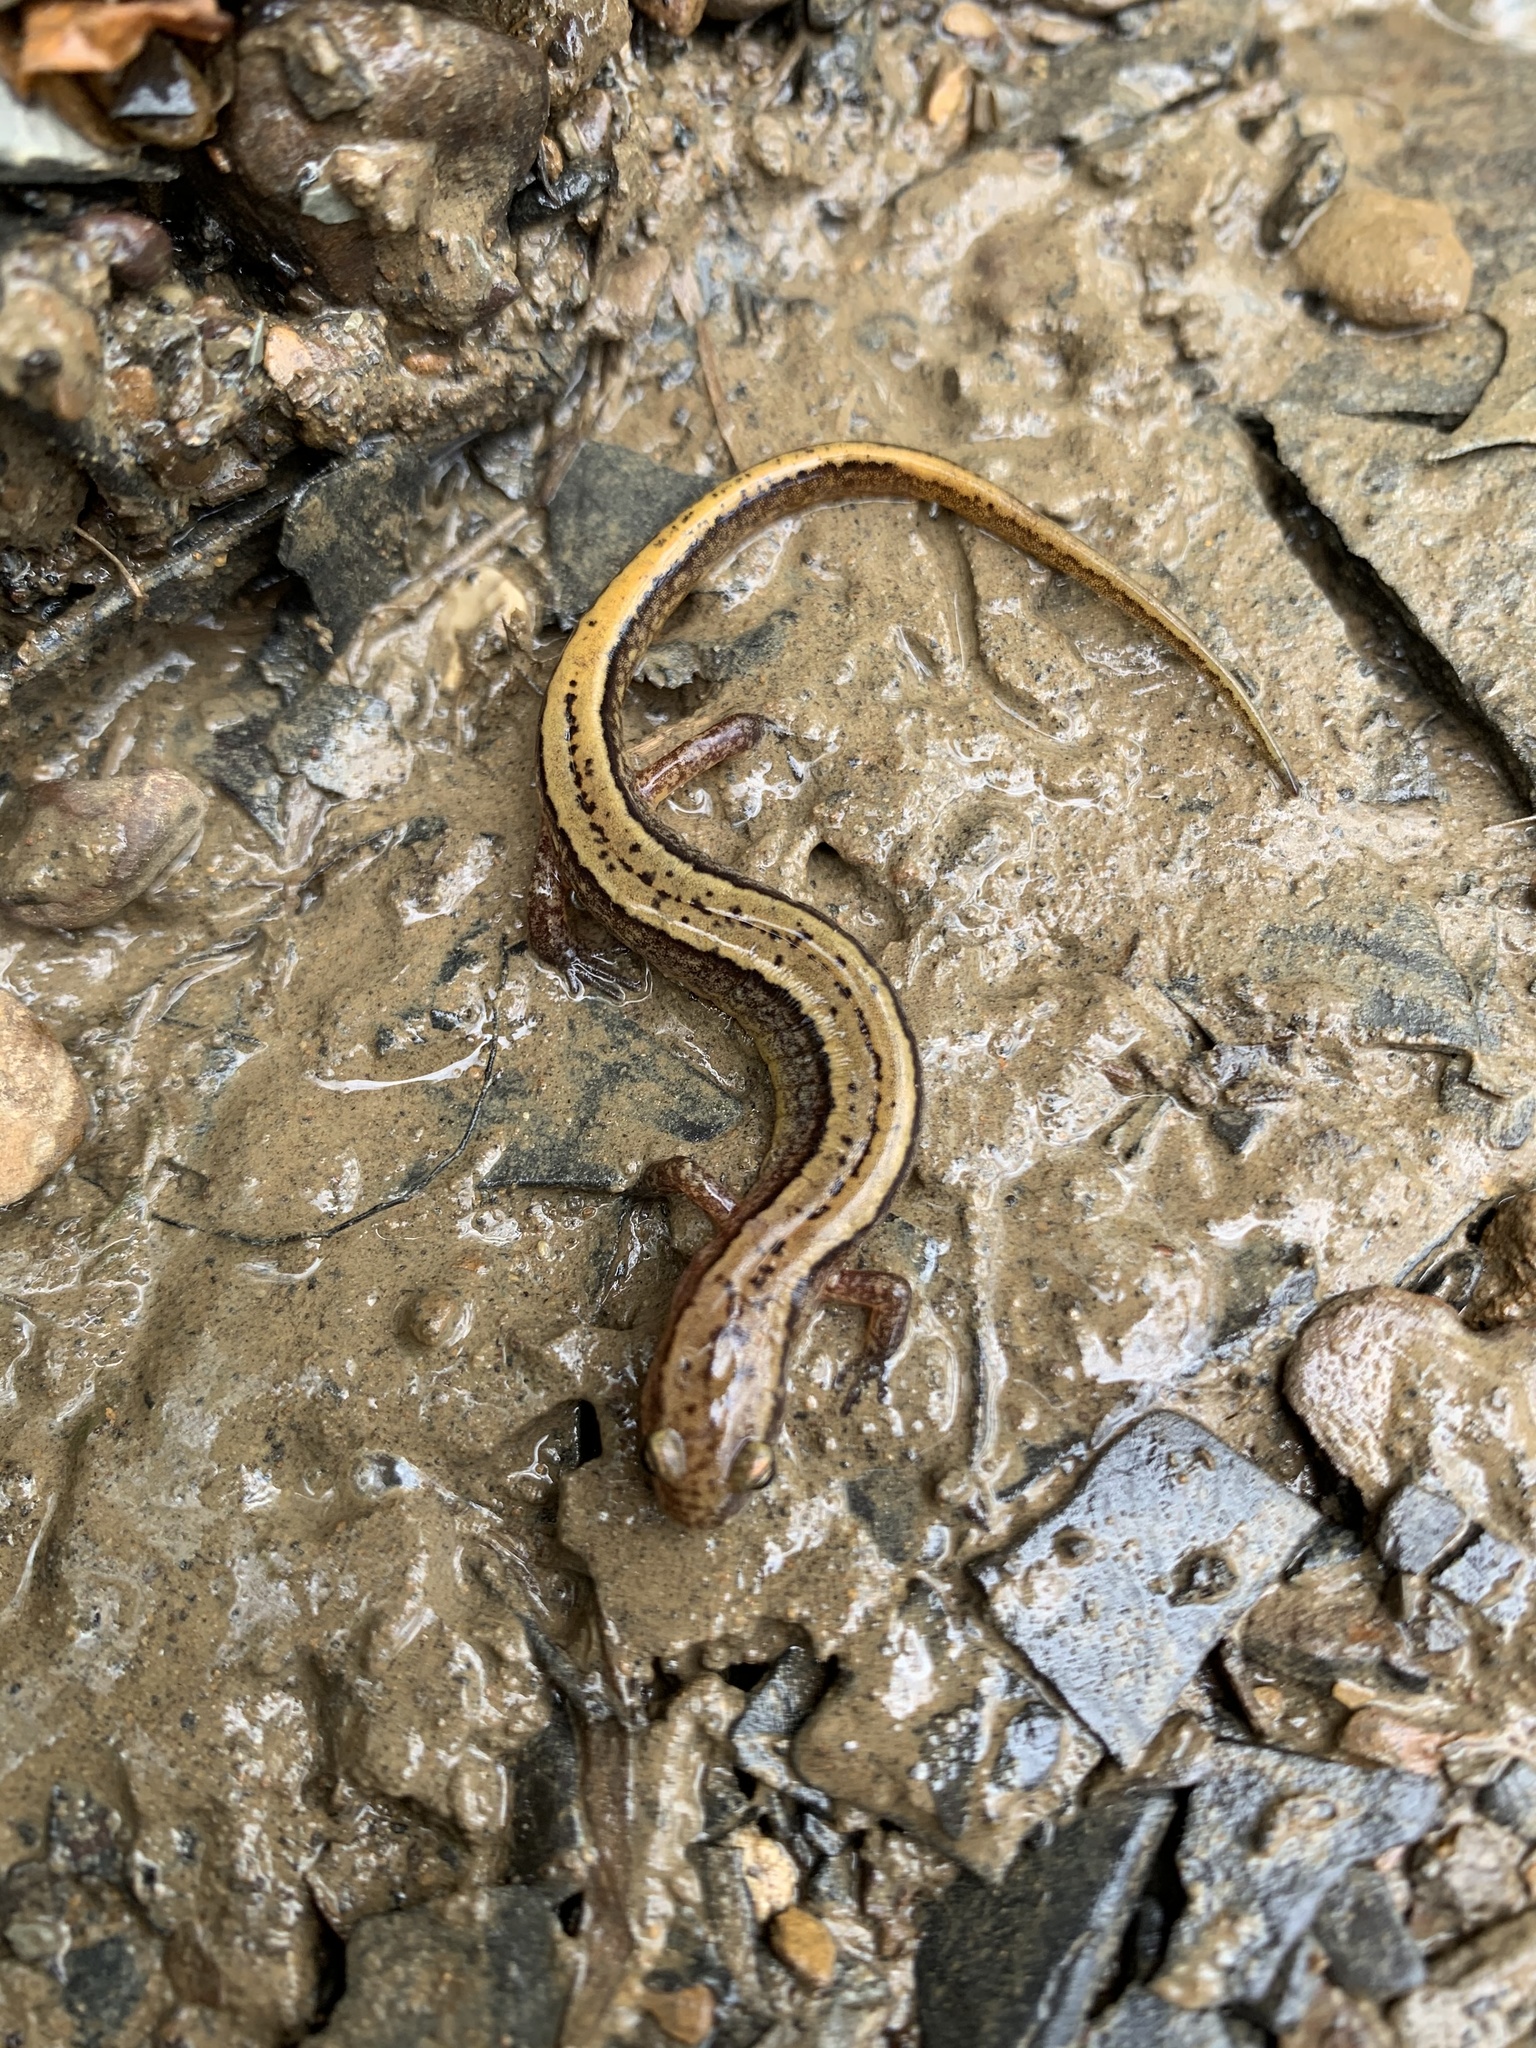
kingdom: Animalia
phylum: Chordata
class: Amphibia
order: Caudata
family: Plethodontidae
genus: Eurycea
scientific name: Eurycea cirrigera
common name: Southern two-lined salamander
